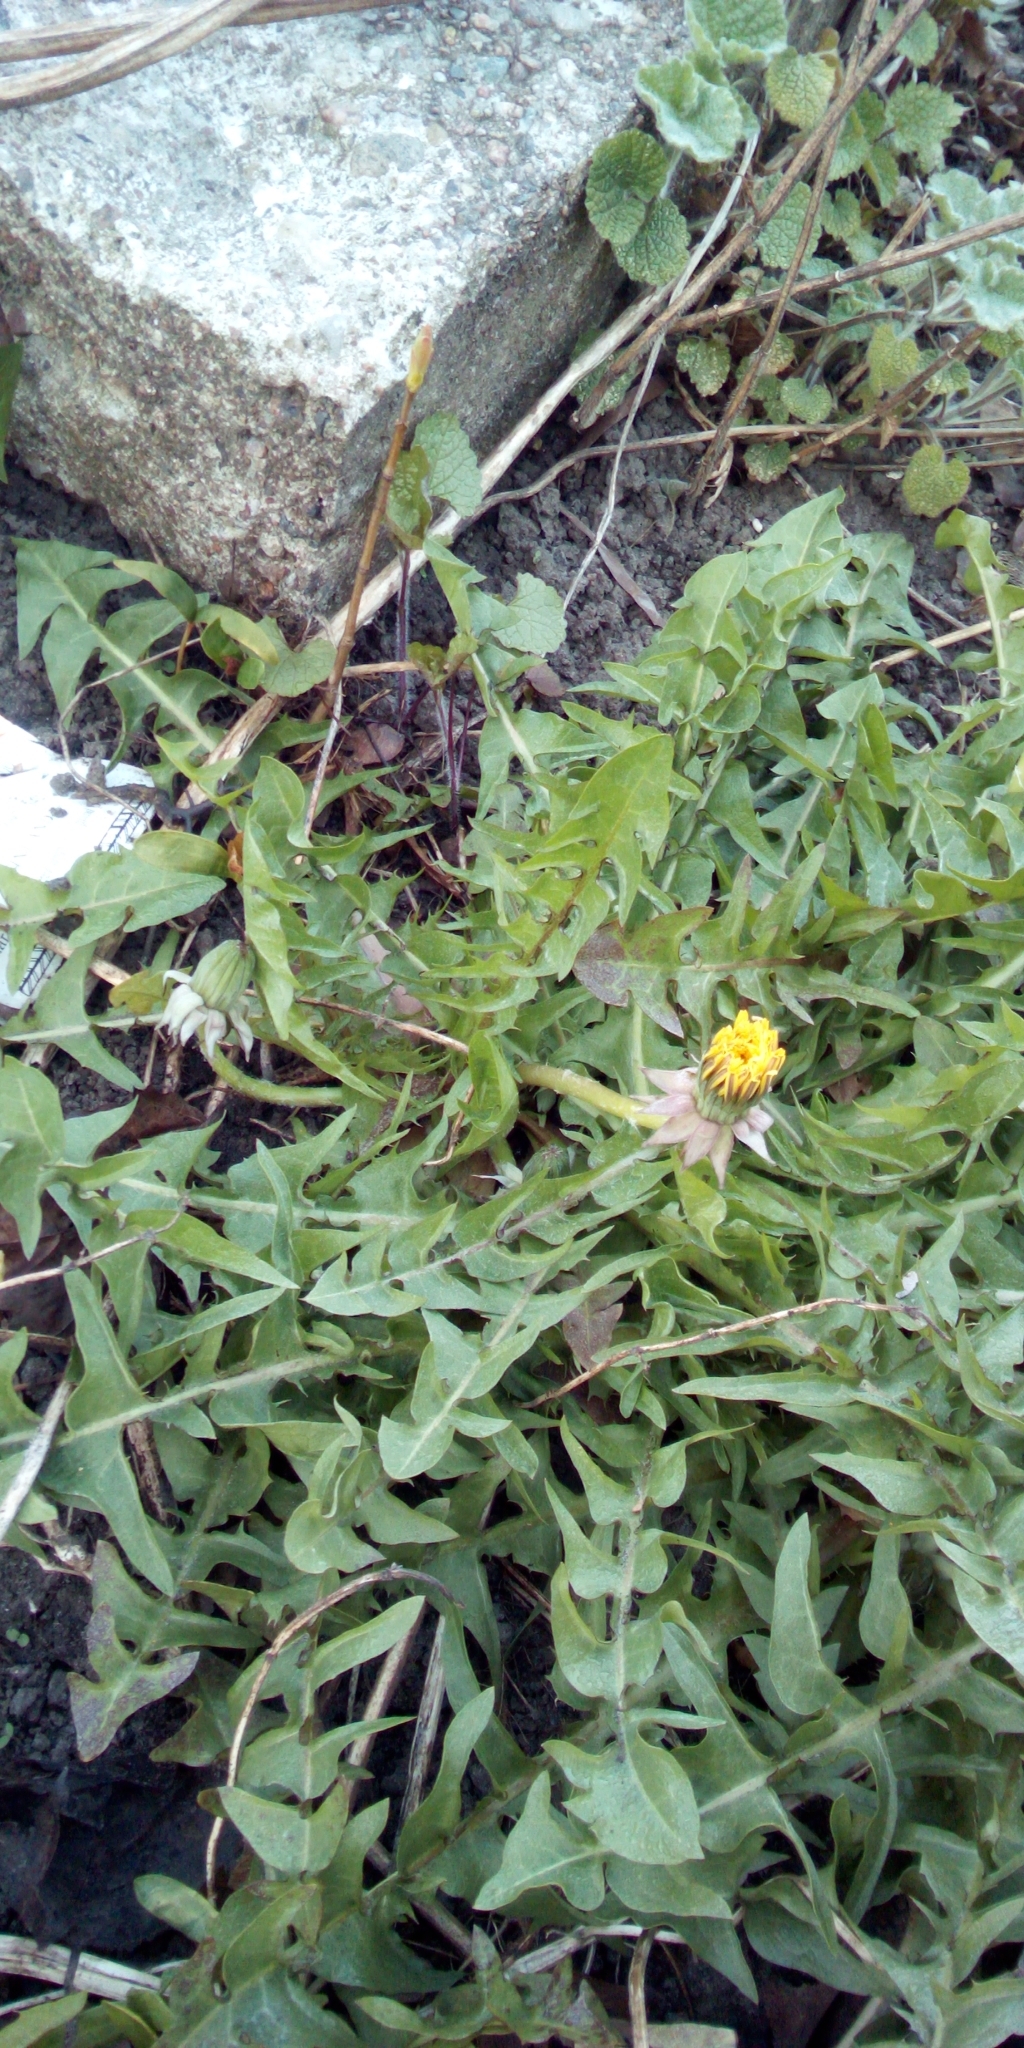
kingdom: Plantae
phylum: Tracheophyta
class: Magnoliopsida
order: Asterales
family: Asteraceae
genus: Taraxacum
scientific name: Taraxacum officinale
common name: Common dandelion
